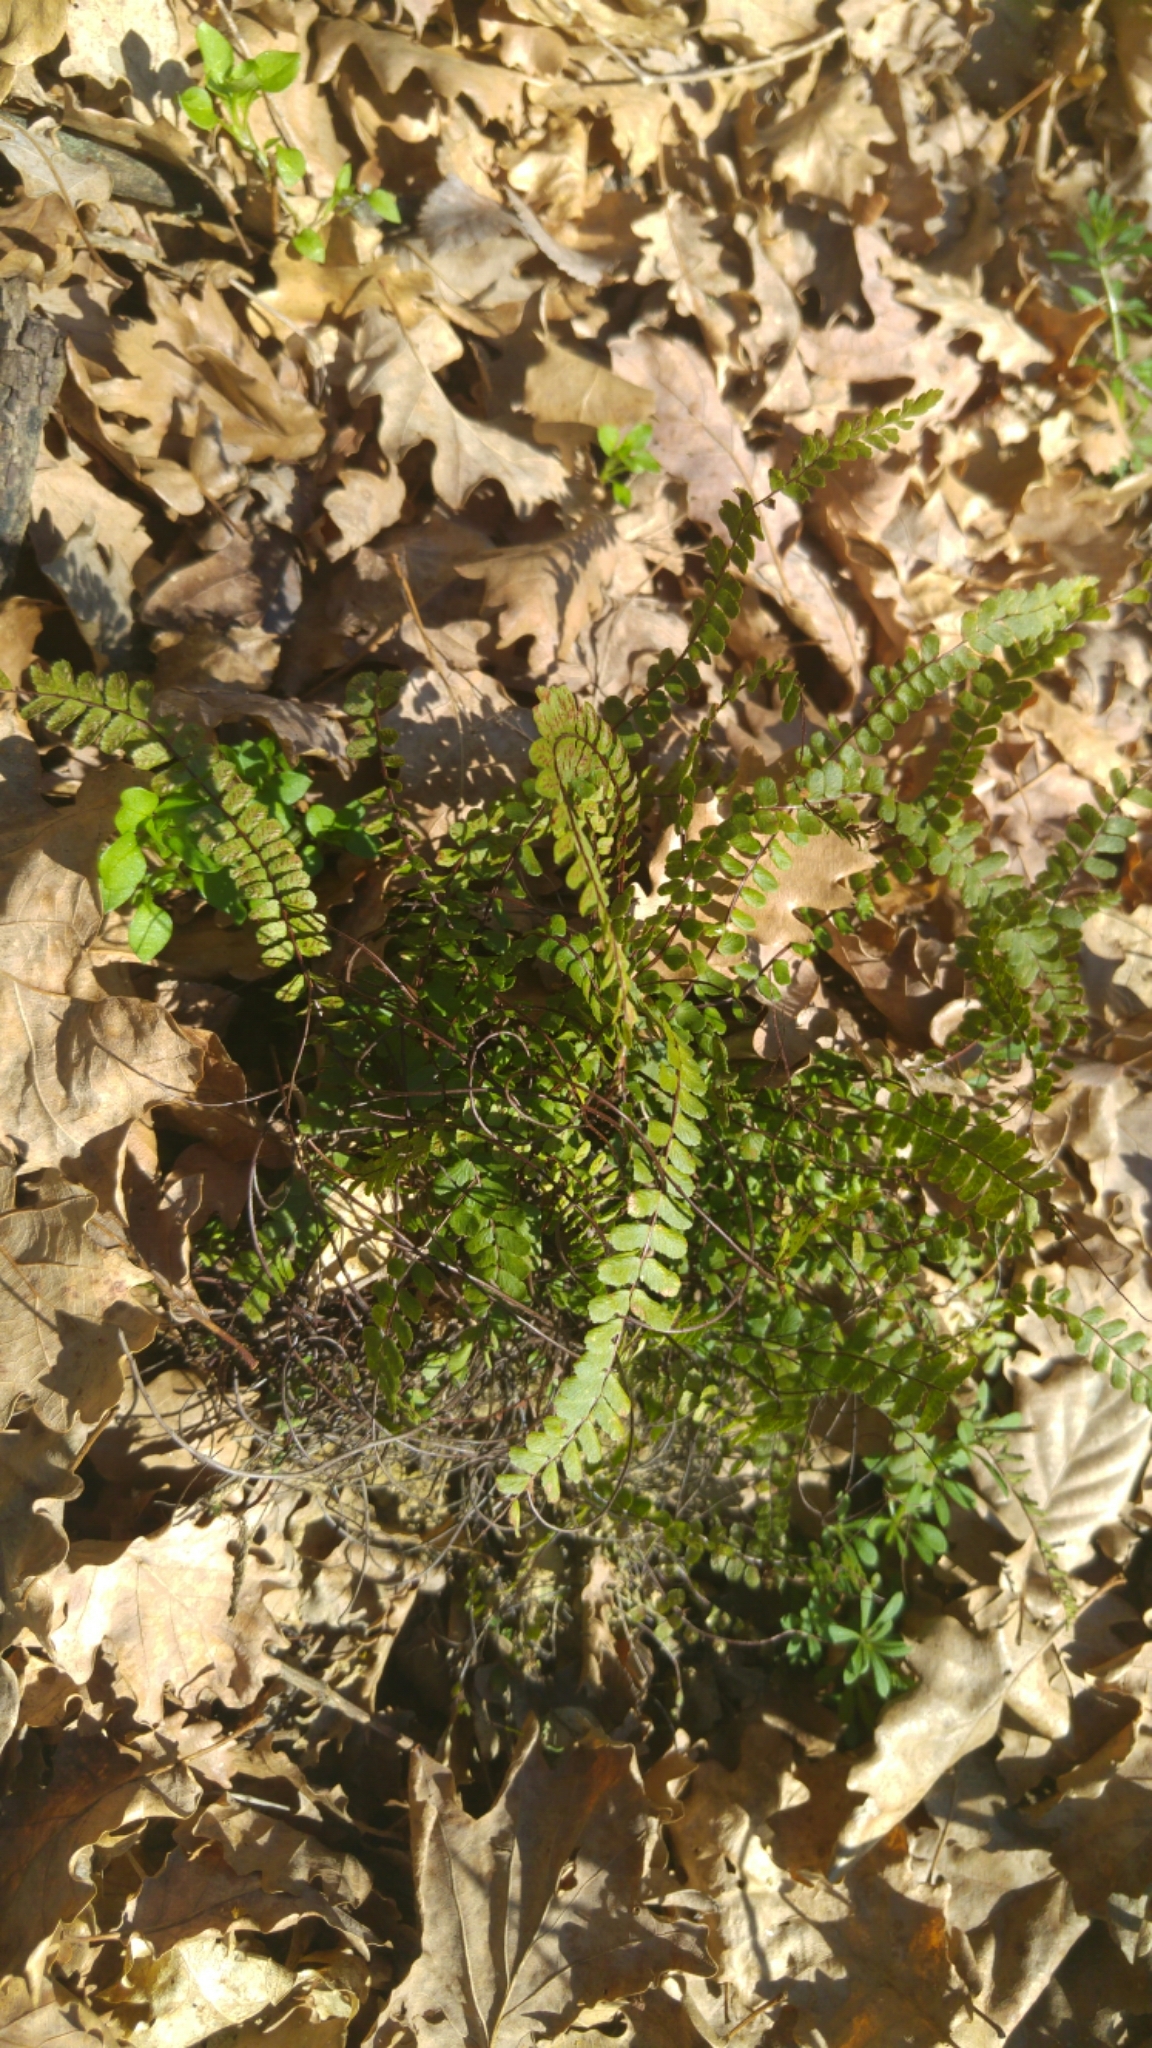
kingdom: Plantae
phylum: Tracheophyta
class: Polypodiopsida
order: Polypodiales
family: Aspleniaceae
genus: Asplenium
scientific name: Asplenium trichomanes
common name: Maidenhair spleenwort
